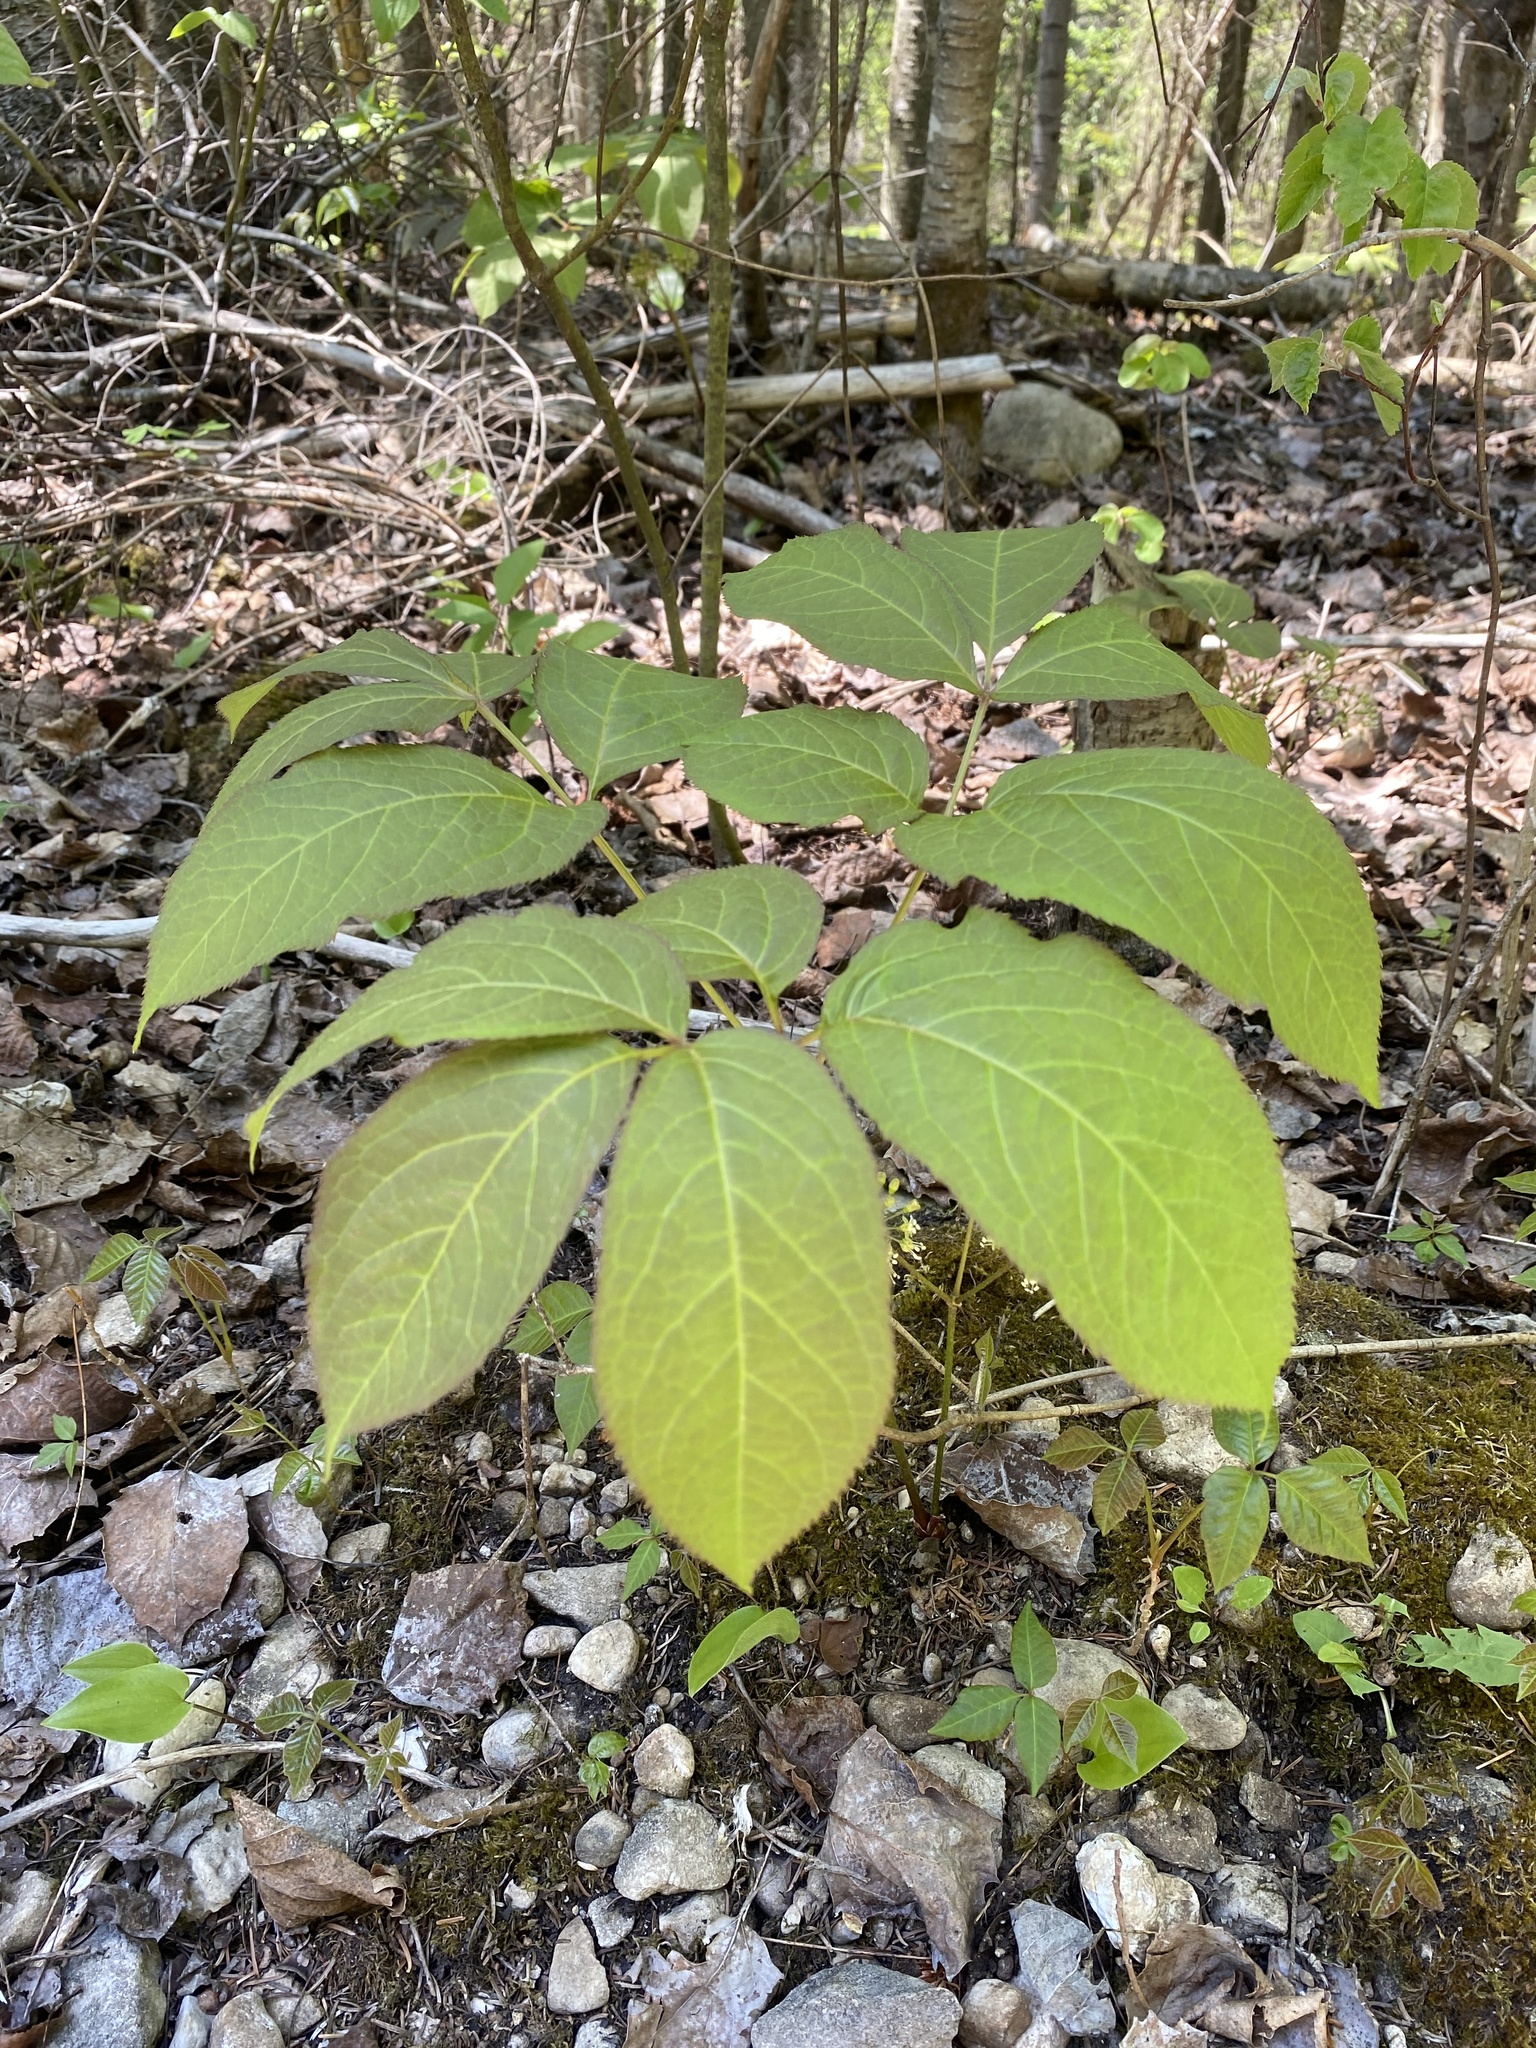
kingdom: Plantae
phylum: Tracheophyta
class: Magnoliopsida
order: Apiales
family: Araliaceae
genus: Aralia
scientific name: Aralia nudicaulis
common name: Wild sarsaparilla
